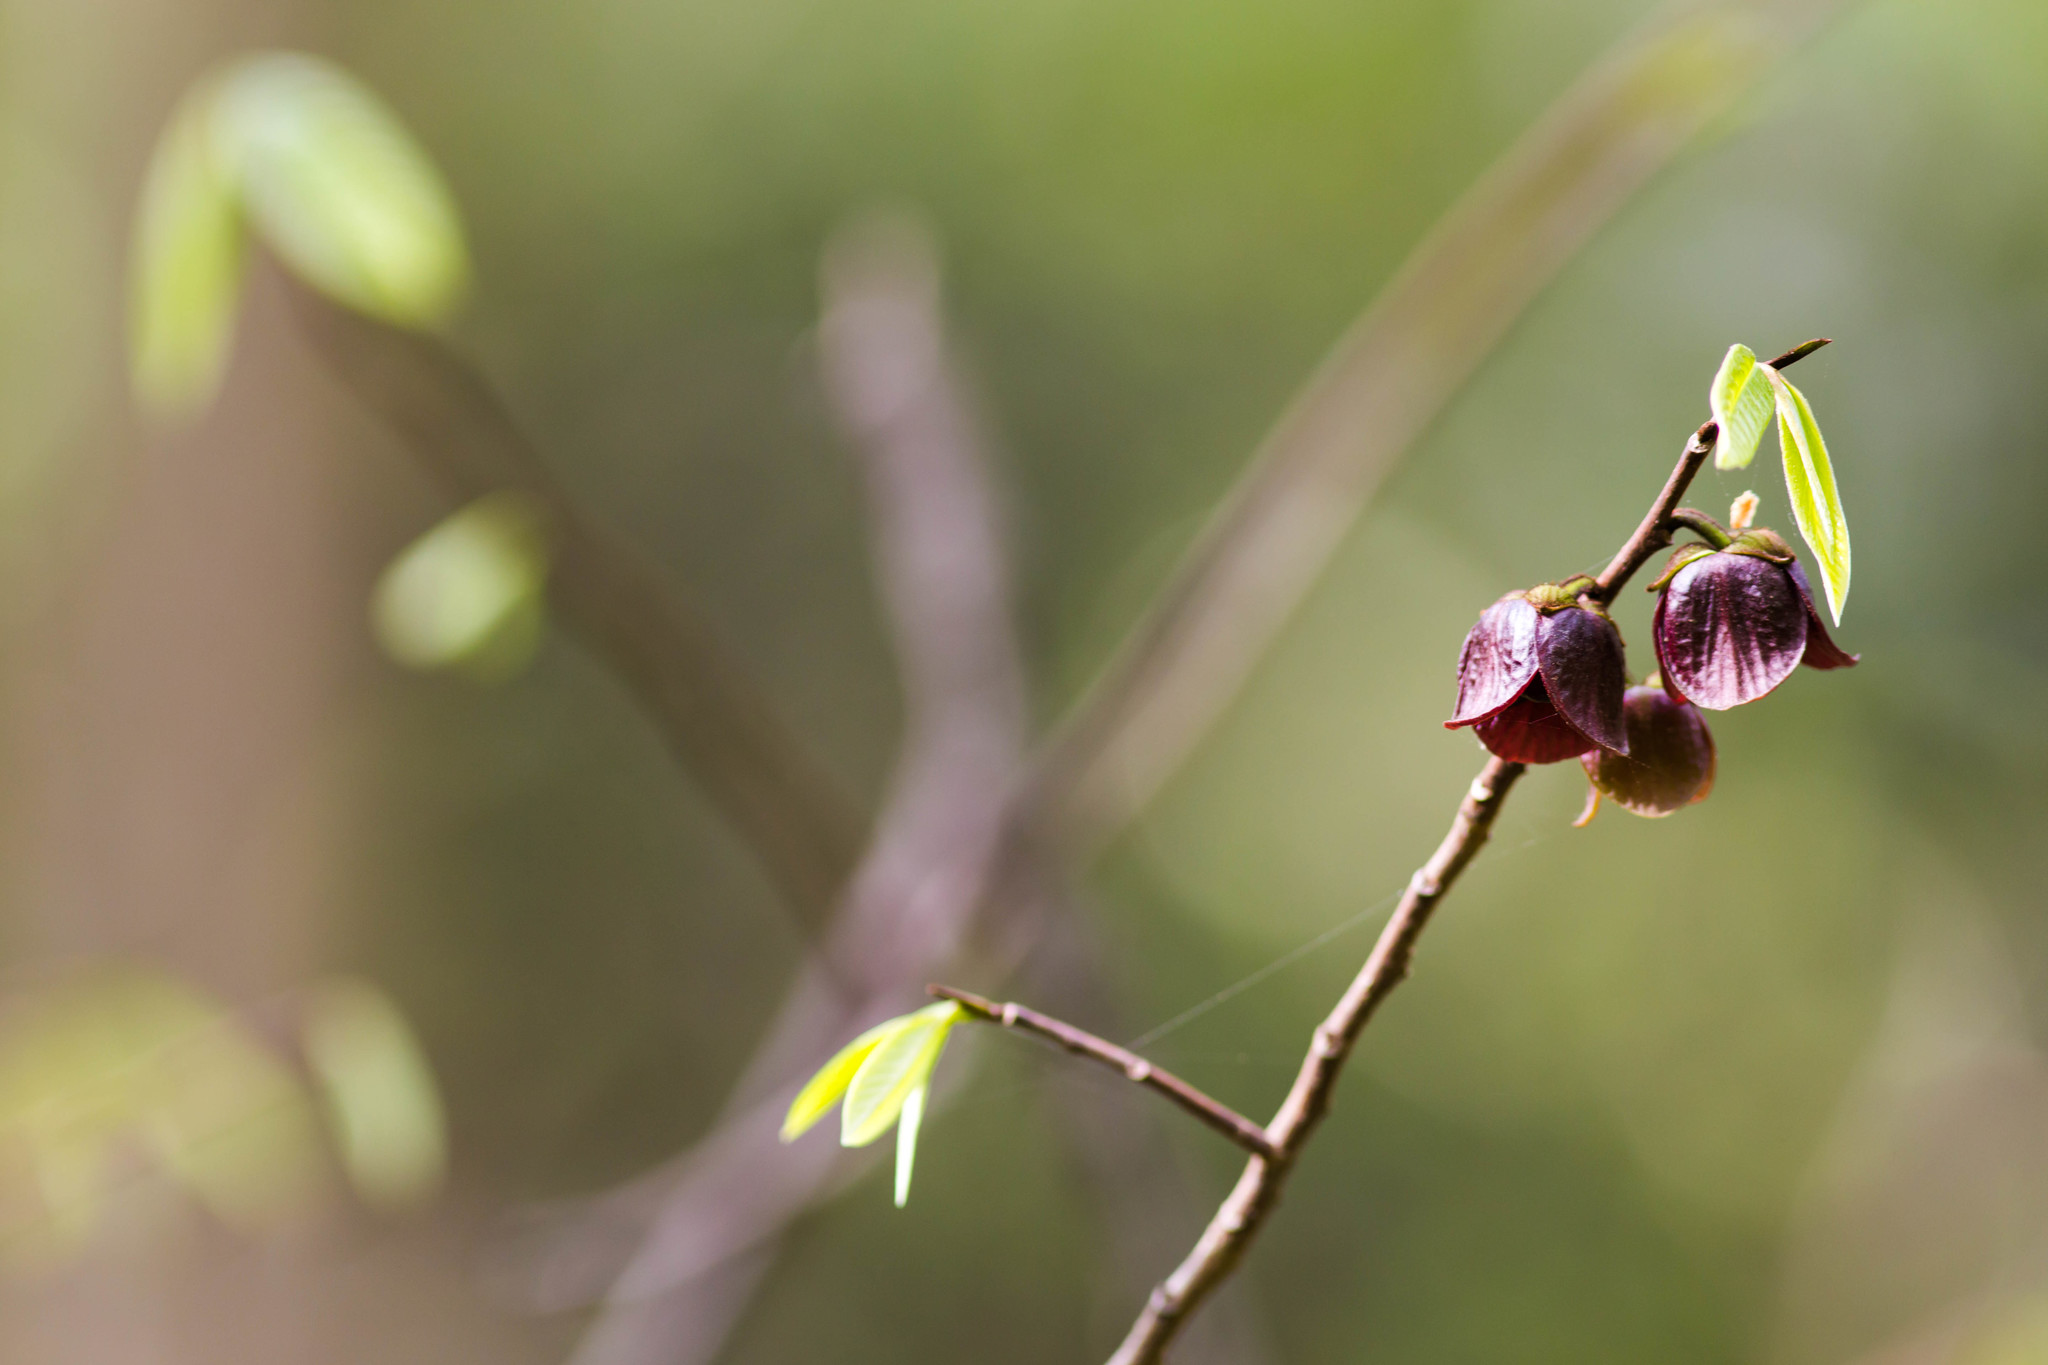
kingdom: Plantae
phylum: Tracheophyta
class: Magnoliopsida
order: Magnoliales
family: Annonaceae
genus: Asimina
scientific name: Asimina triloba
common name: Dog-banana
